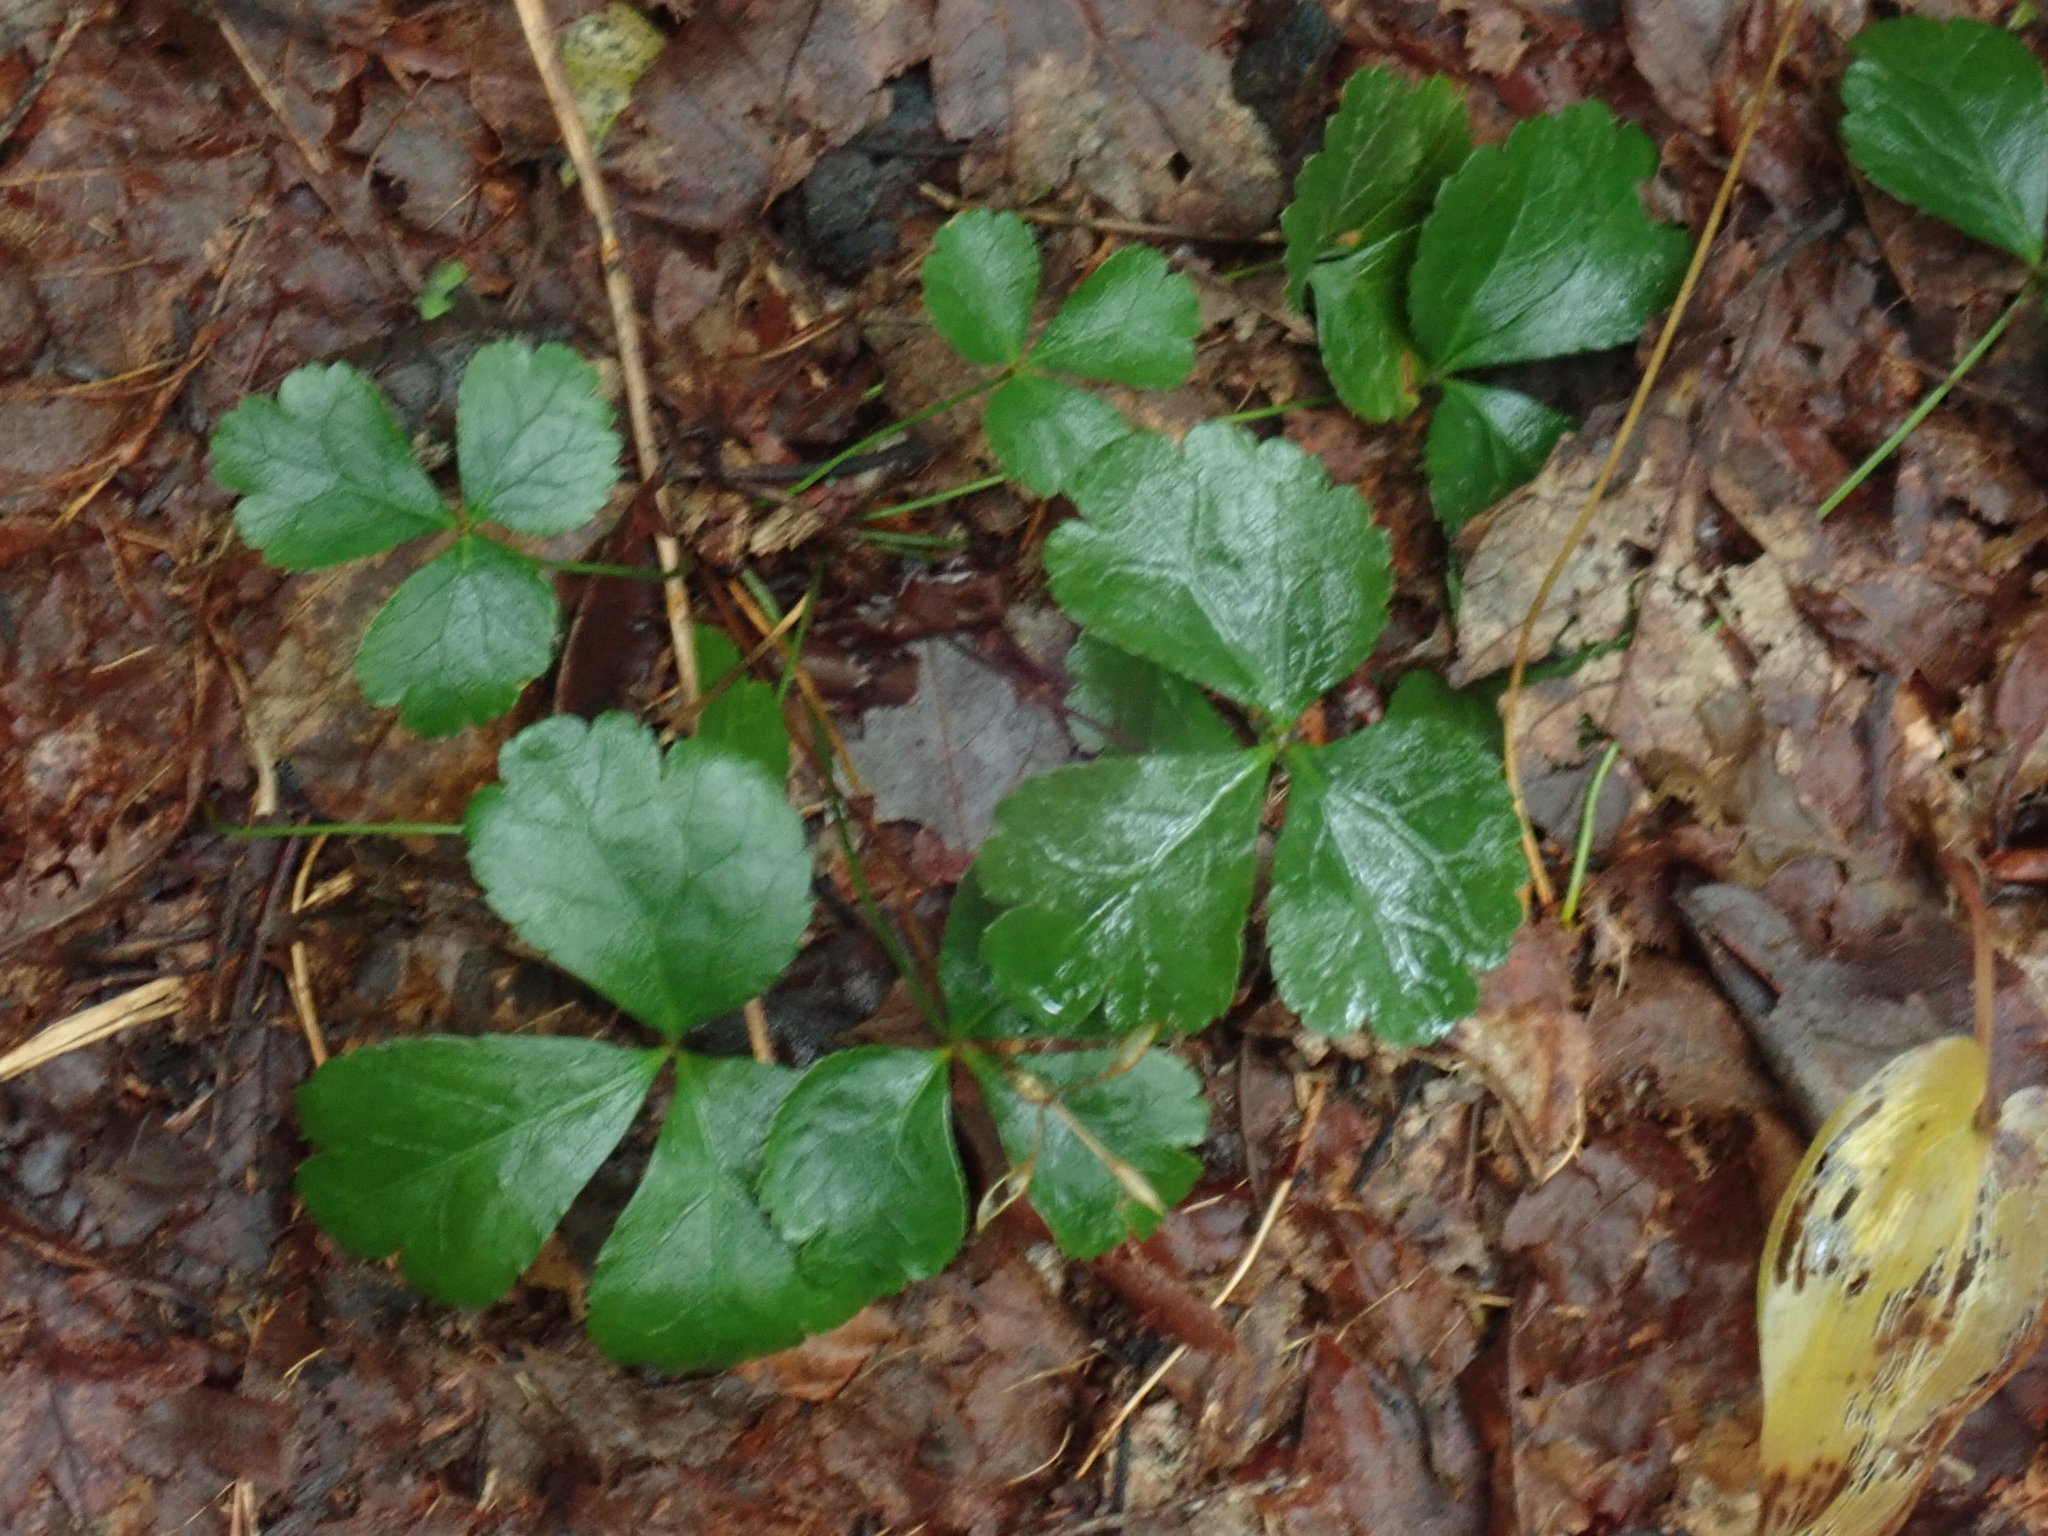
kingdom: Plantae
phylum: Tracheophyta
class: Magnoliopsida
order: Ranunculales
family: Ranunculaceae
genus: Coptis
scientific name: Coptis trifolia
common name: Canker-root
